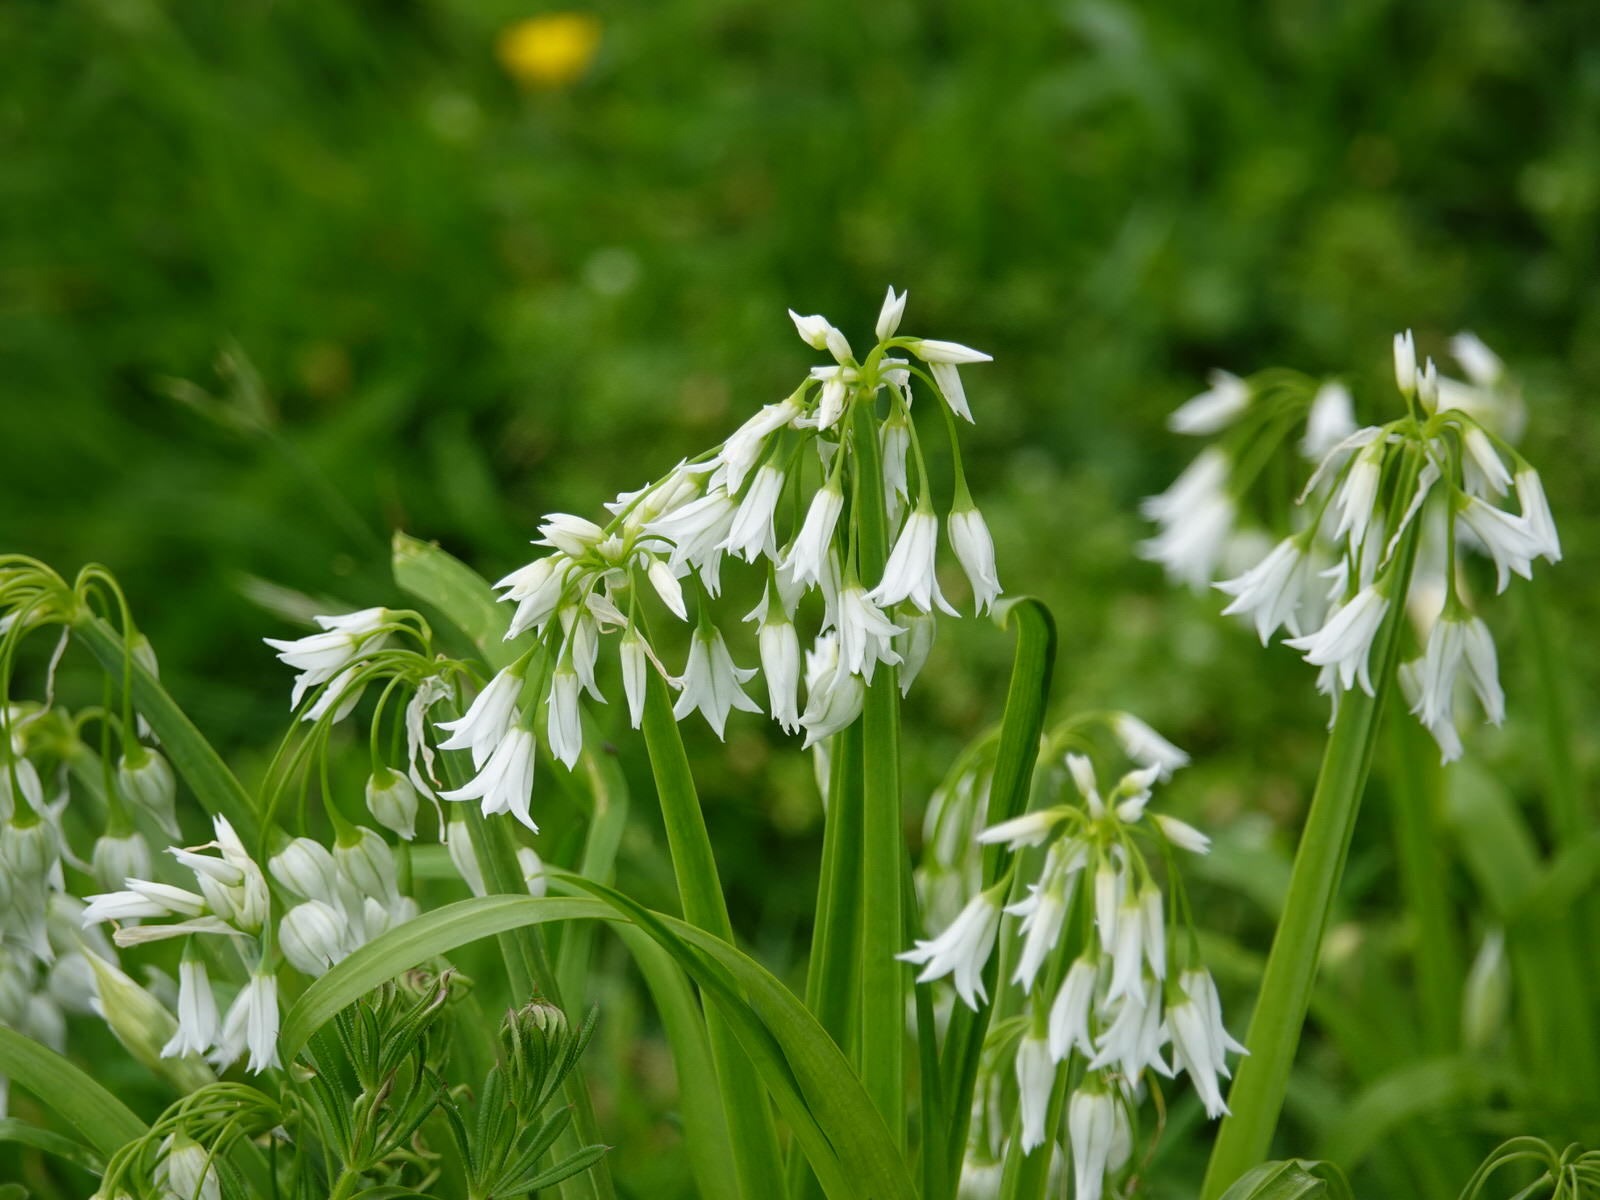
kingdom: Plantae
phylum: Tracheophyta
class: Liliopsida
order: Asparagales
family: Amaryllidaceae
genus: Allium
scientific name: Allium triquetrum
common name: Three-cornered garlic
